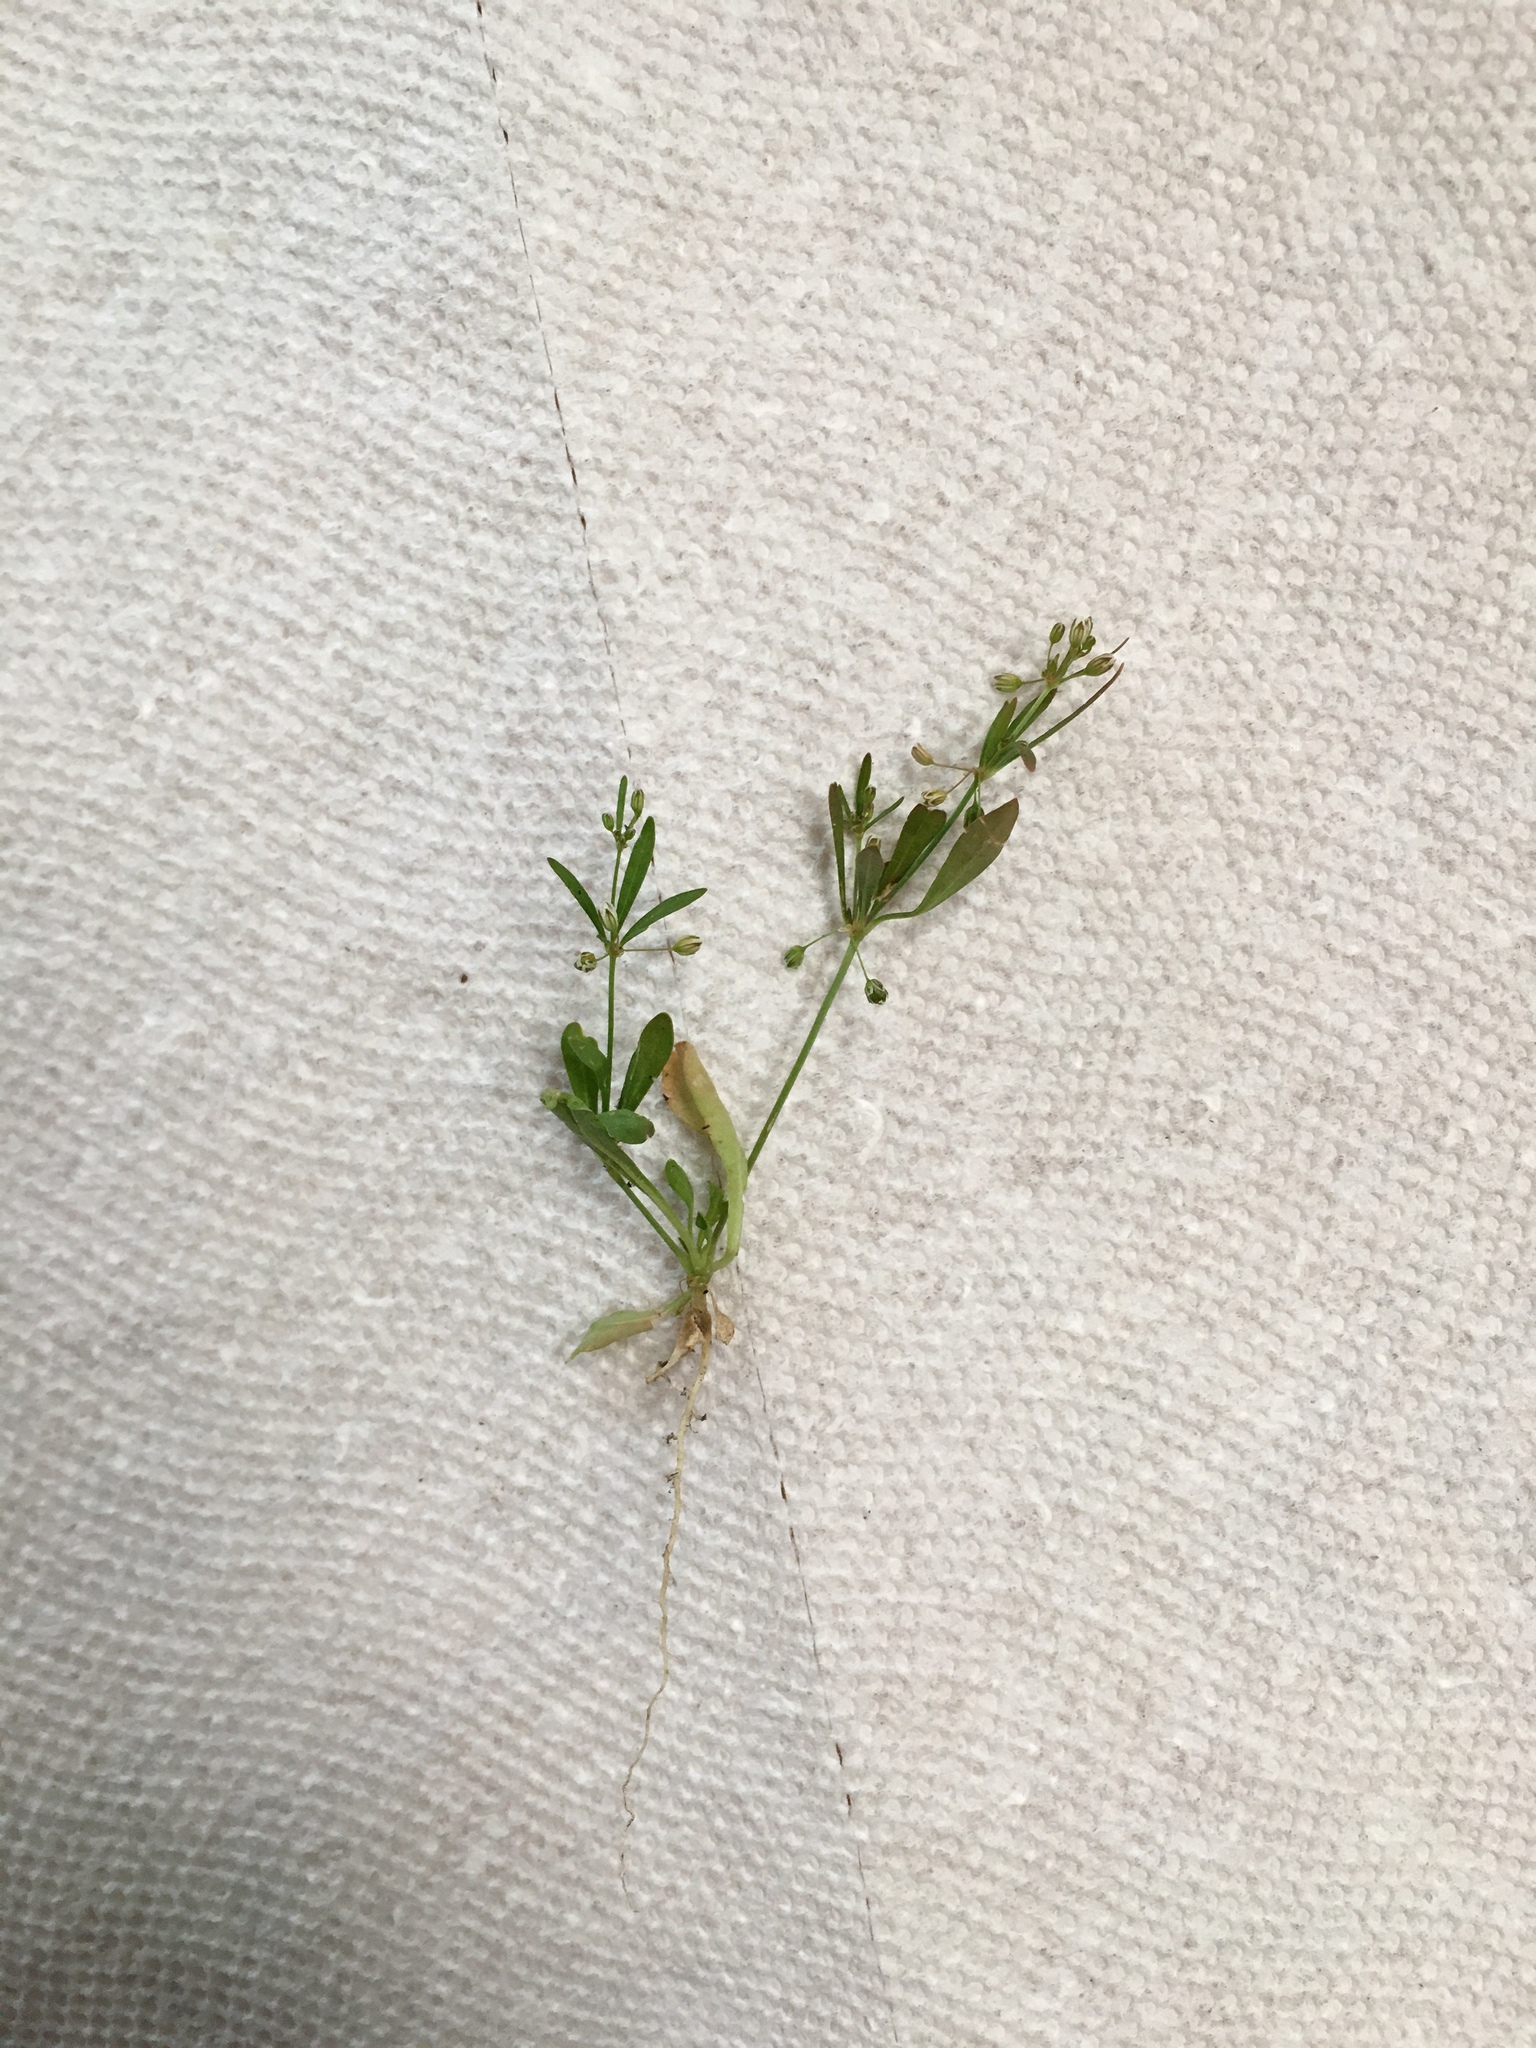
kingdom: Plantae
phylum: Tracheophyta
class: Magnoliopsida
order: Caryophyllales
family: Molluginaceae
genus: Mollugo
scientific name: Mollugo verticillata
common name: Green carpetweed
